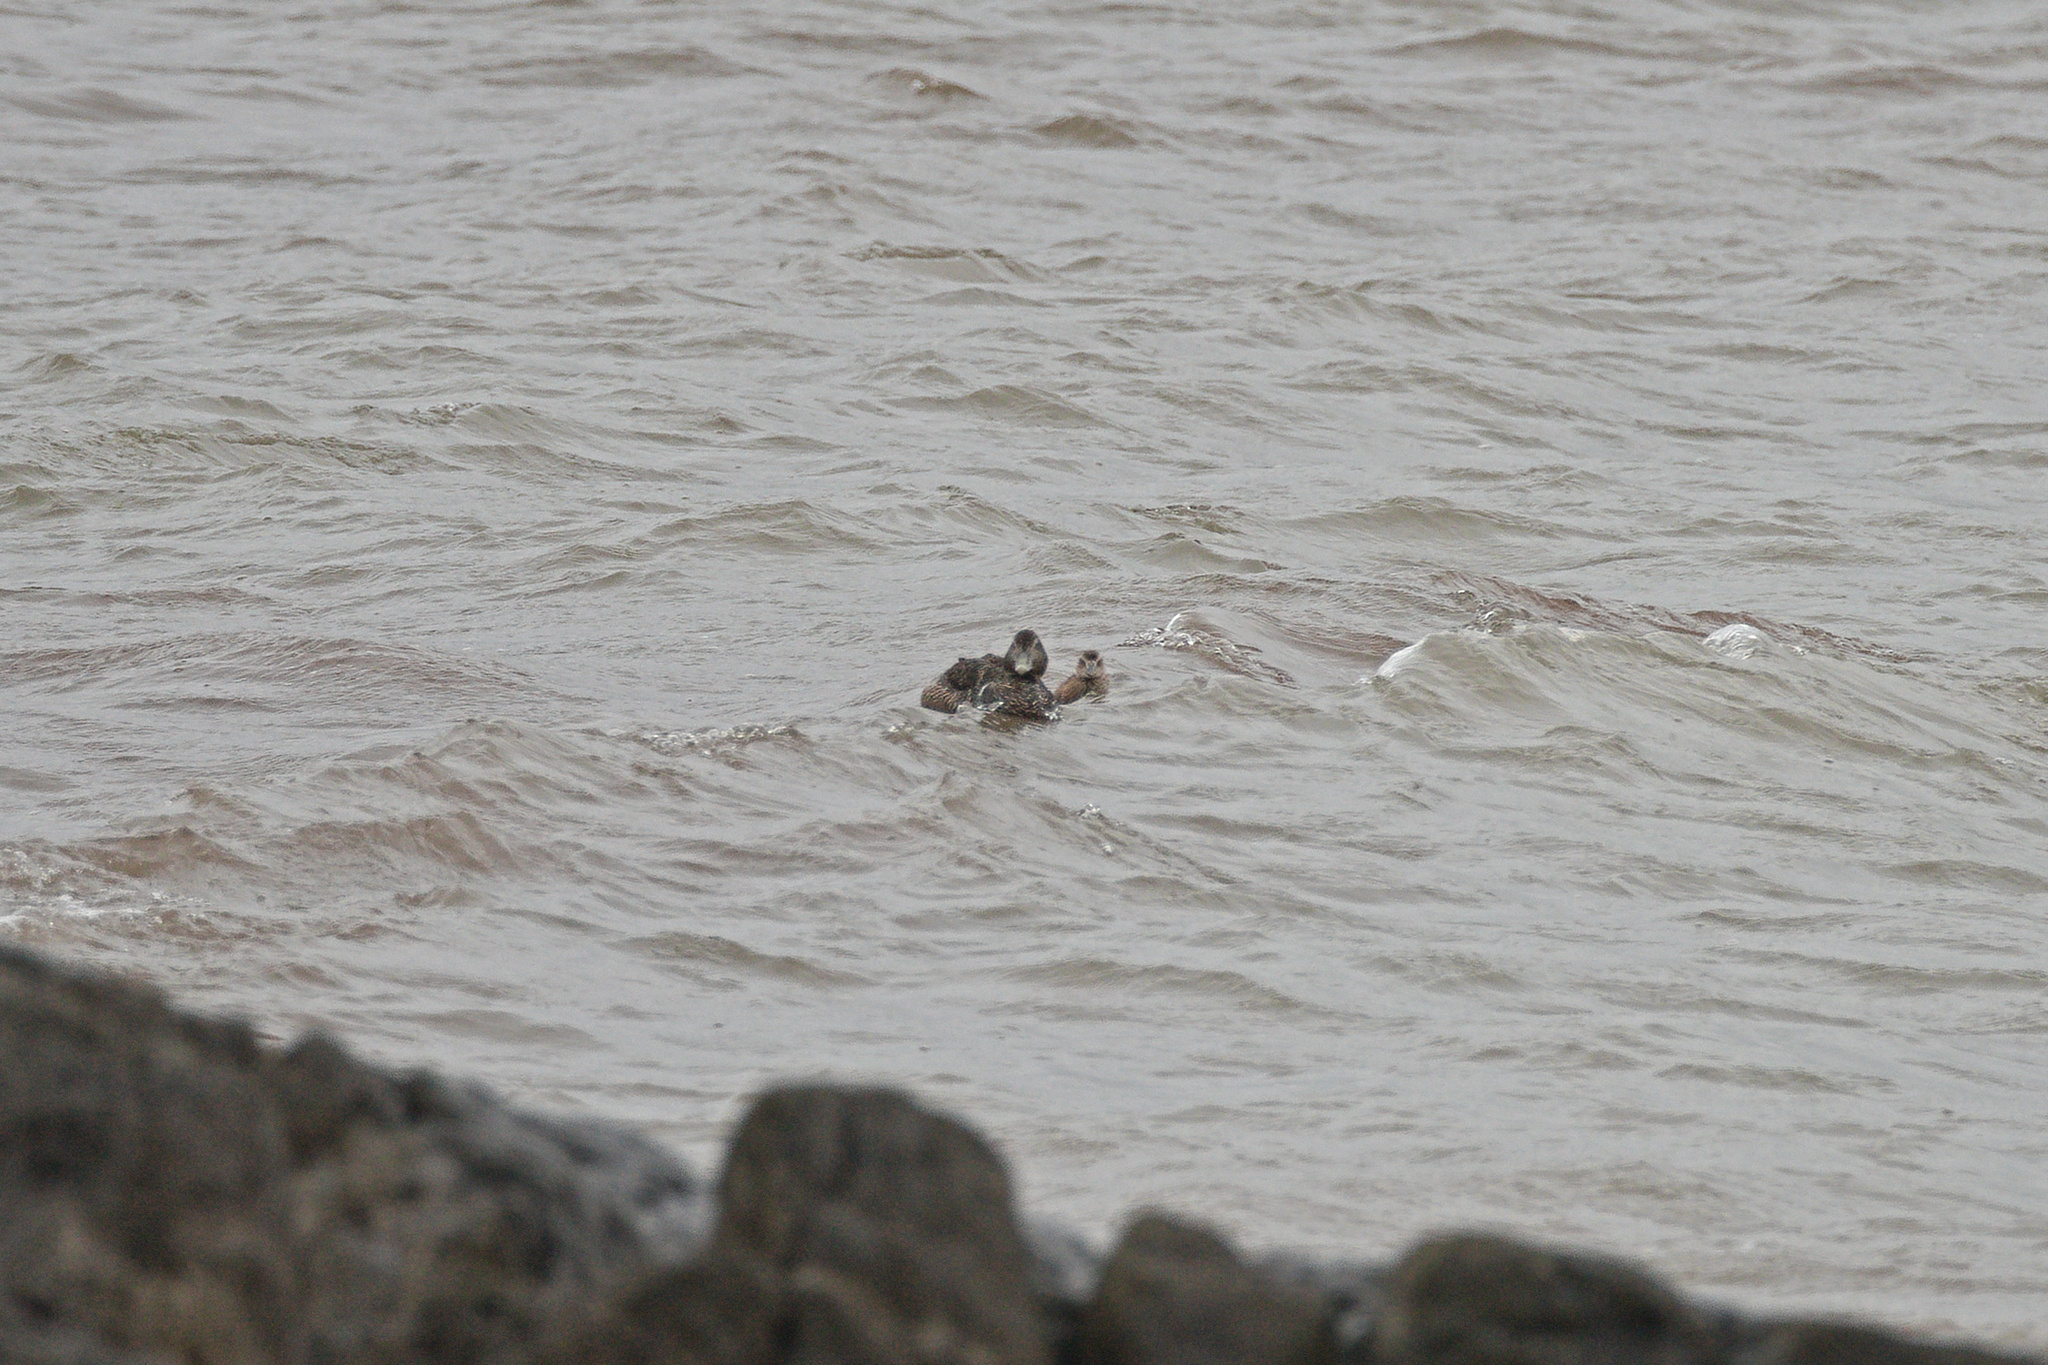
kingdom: Animalia
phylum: Chordata
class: Aves
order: Anseriformes
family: Anatidae
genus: Somateria
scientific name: Somateria mollissima
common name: Common eider
